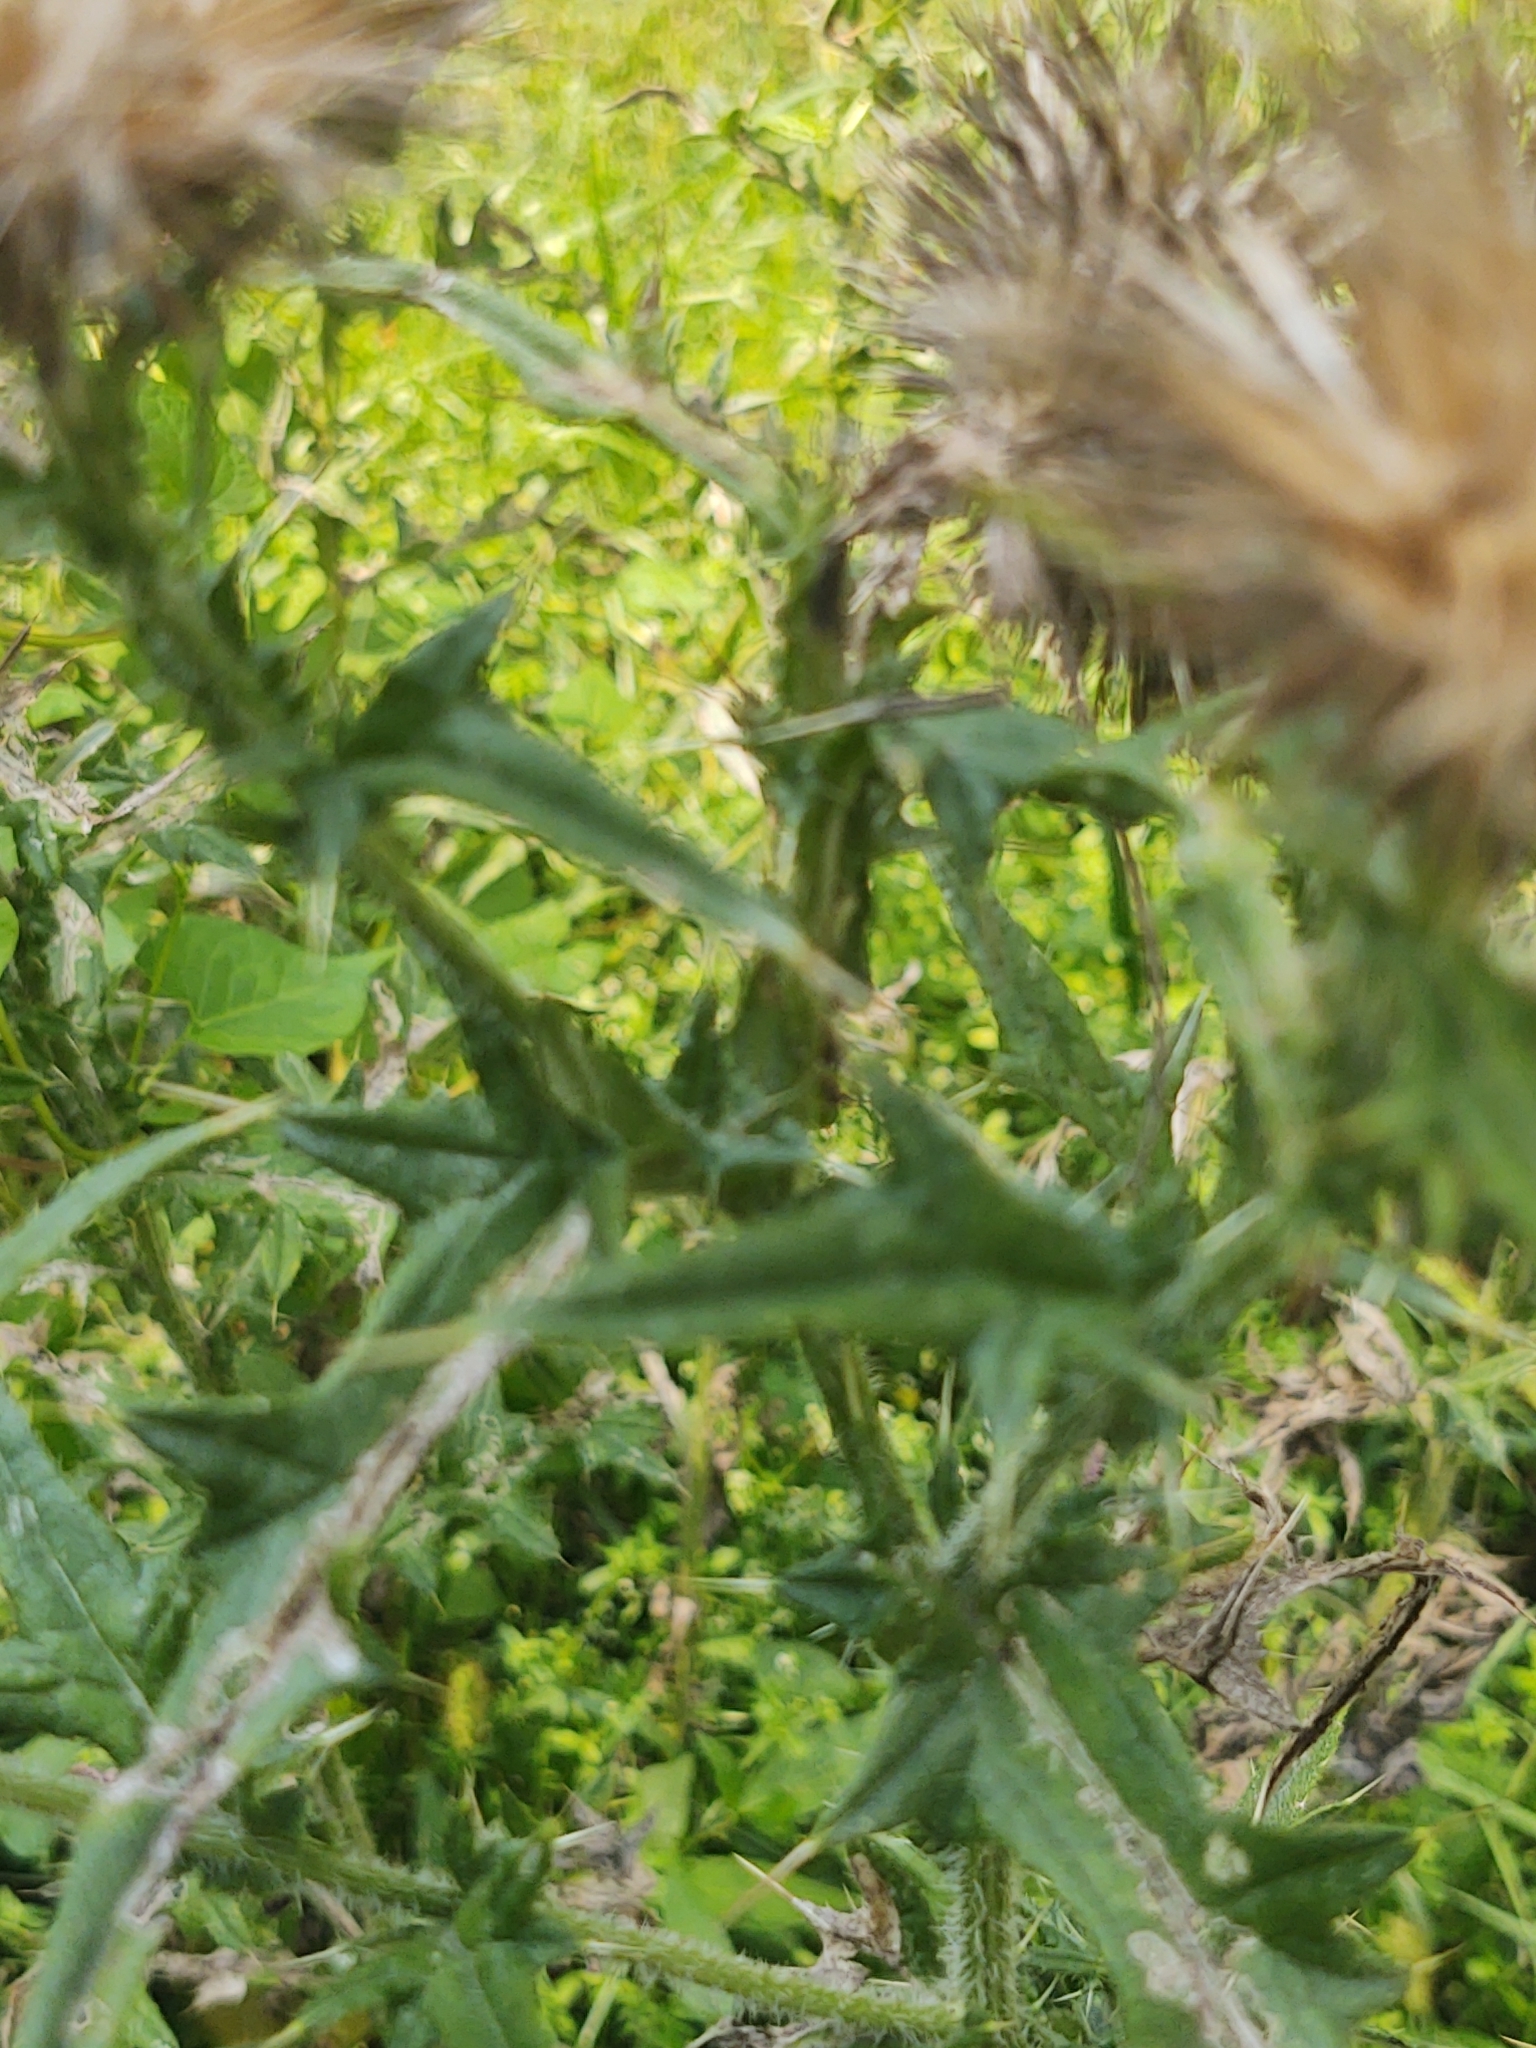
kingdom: Plantae
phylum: Tracheophyta
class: Magnoliopsida
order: Asterales
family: Asteraceae
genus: Cirsium
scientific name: Cirsium vulgare
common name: Bull thistle
